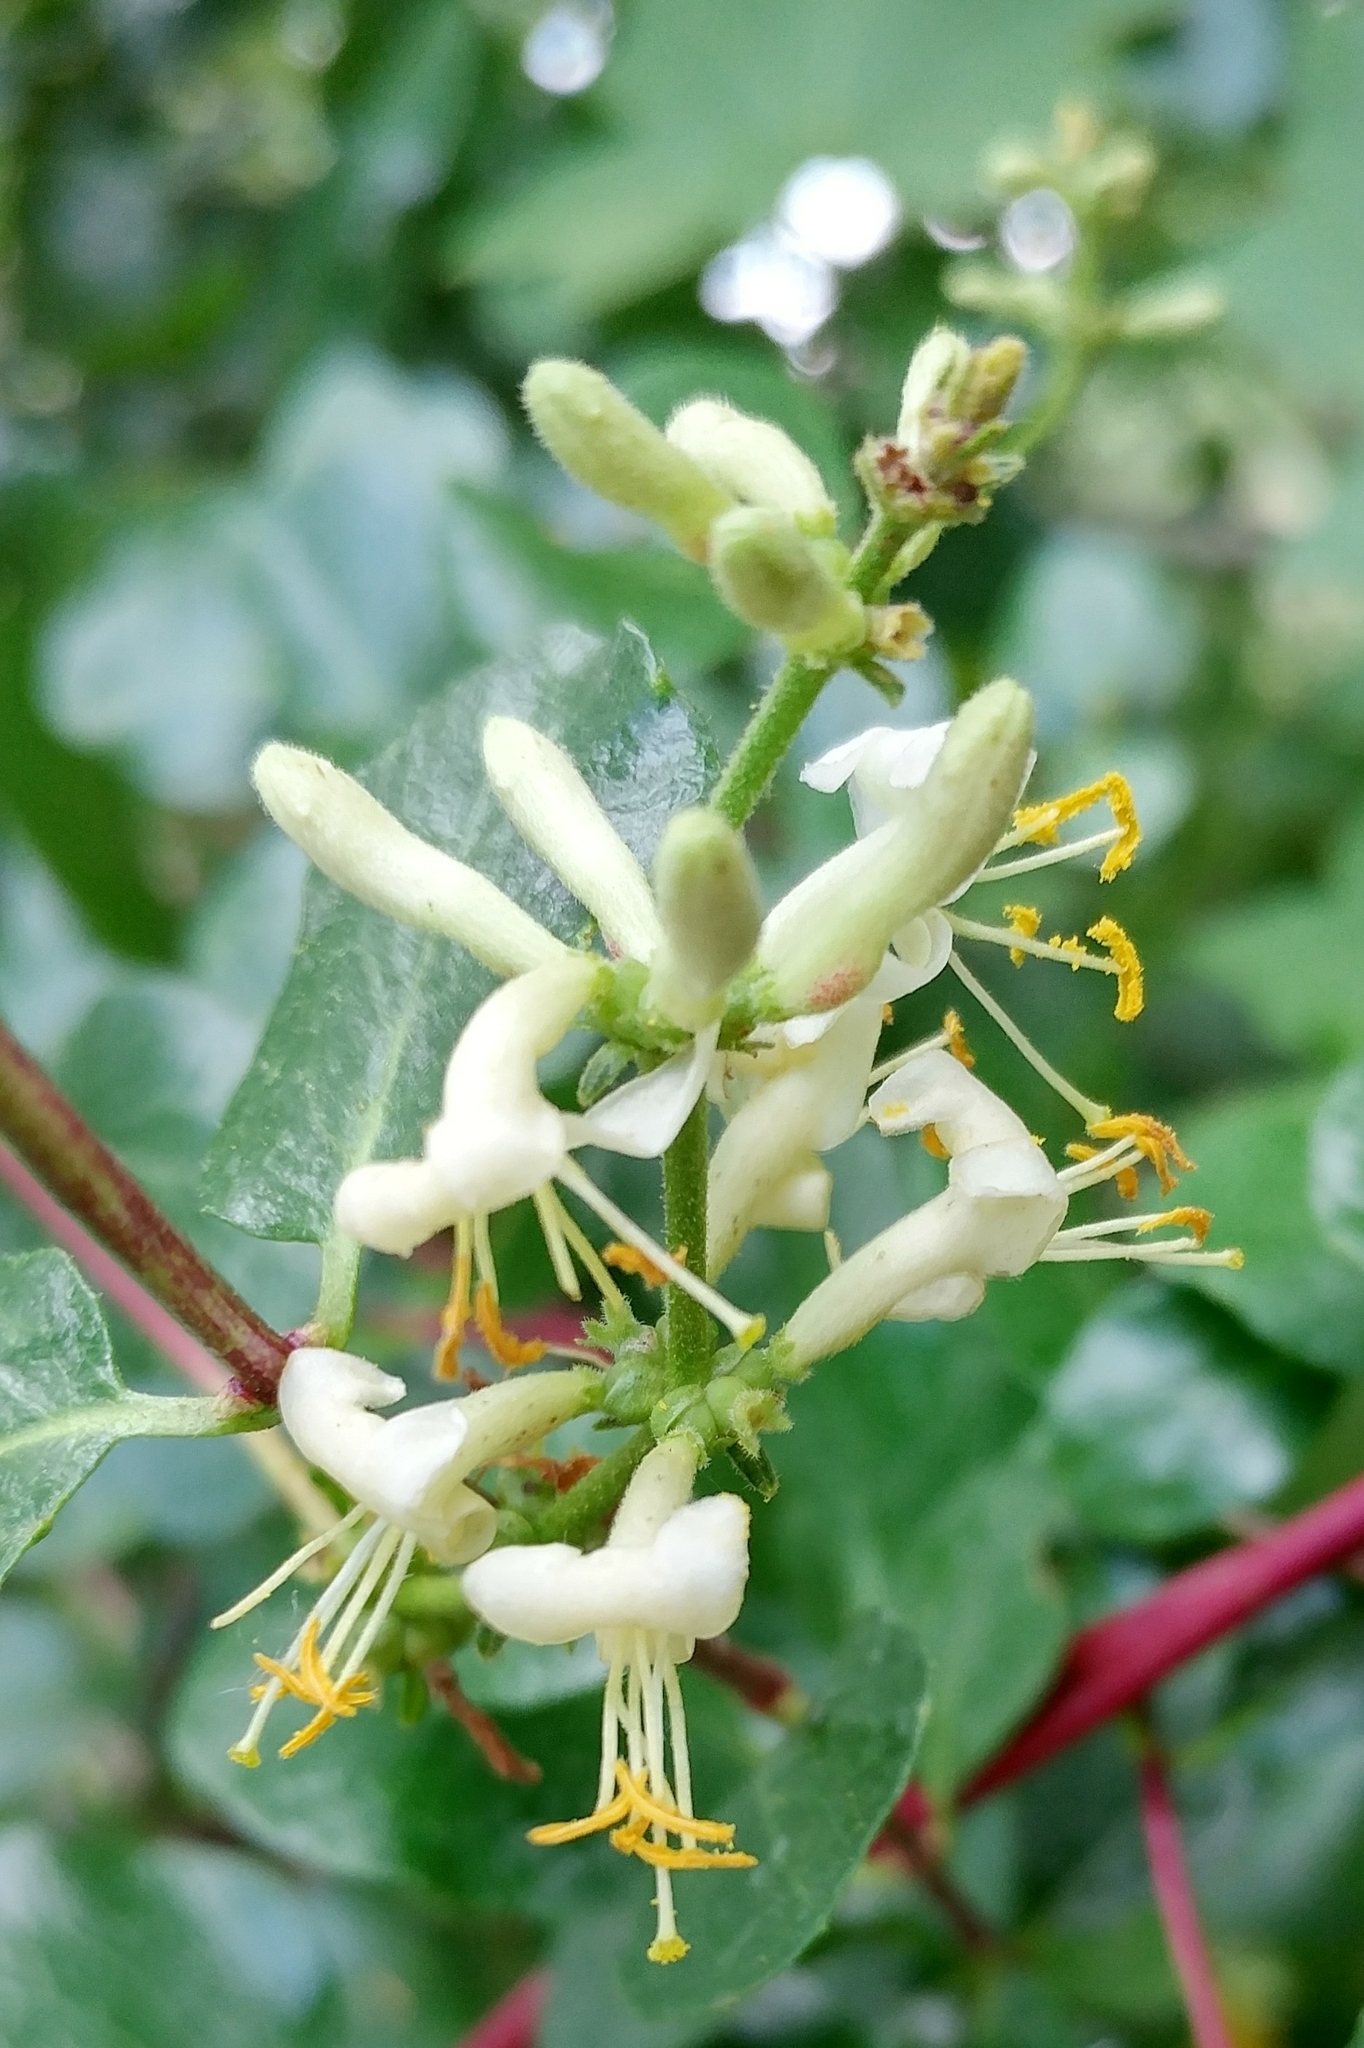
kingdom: Plantae
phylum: Tracheophyta
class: Magnoliopsida
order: Dipsacales
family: Caprifoliaceae
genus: Lonicera
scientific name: Lonicera subspicata
